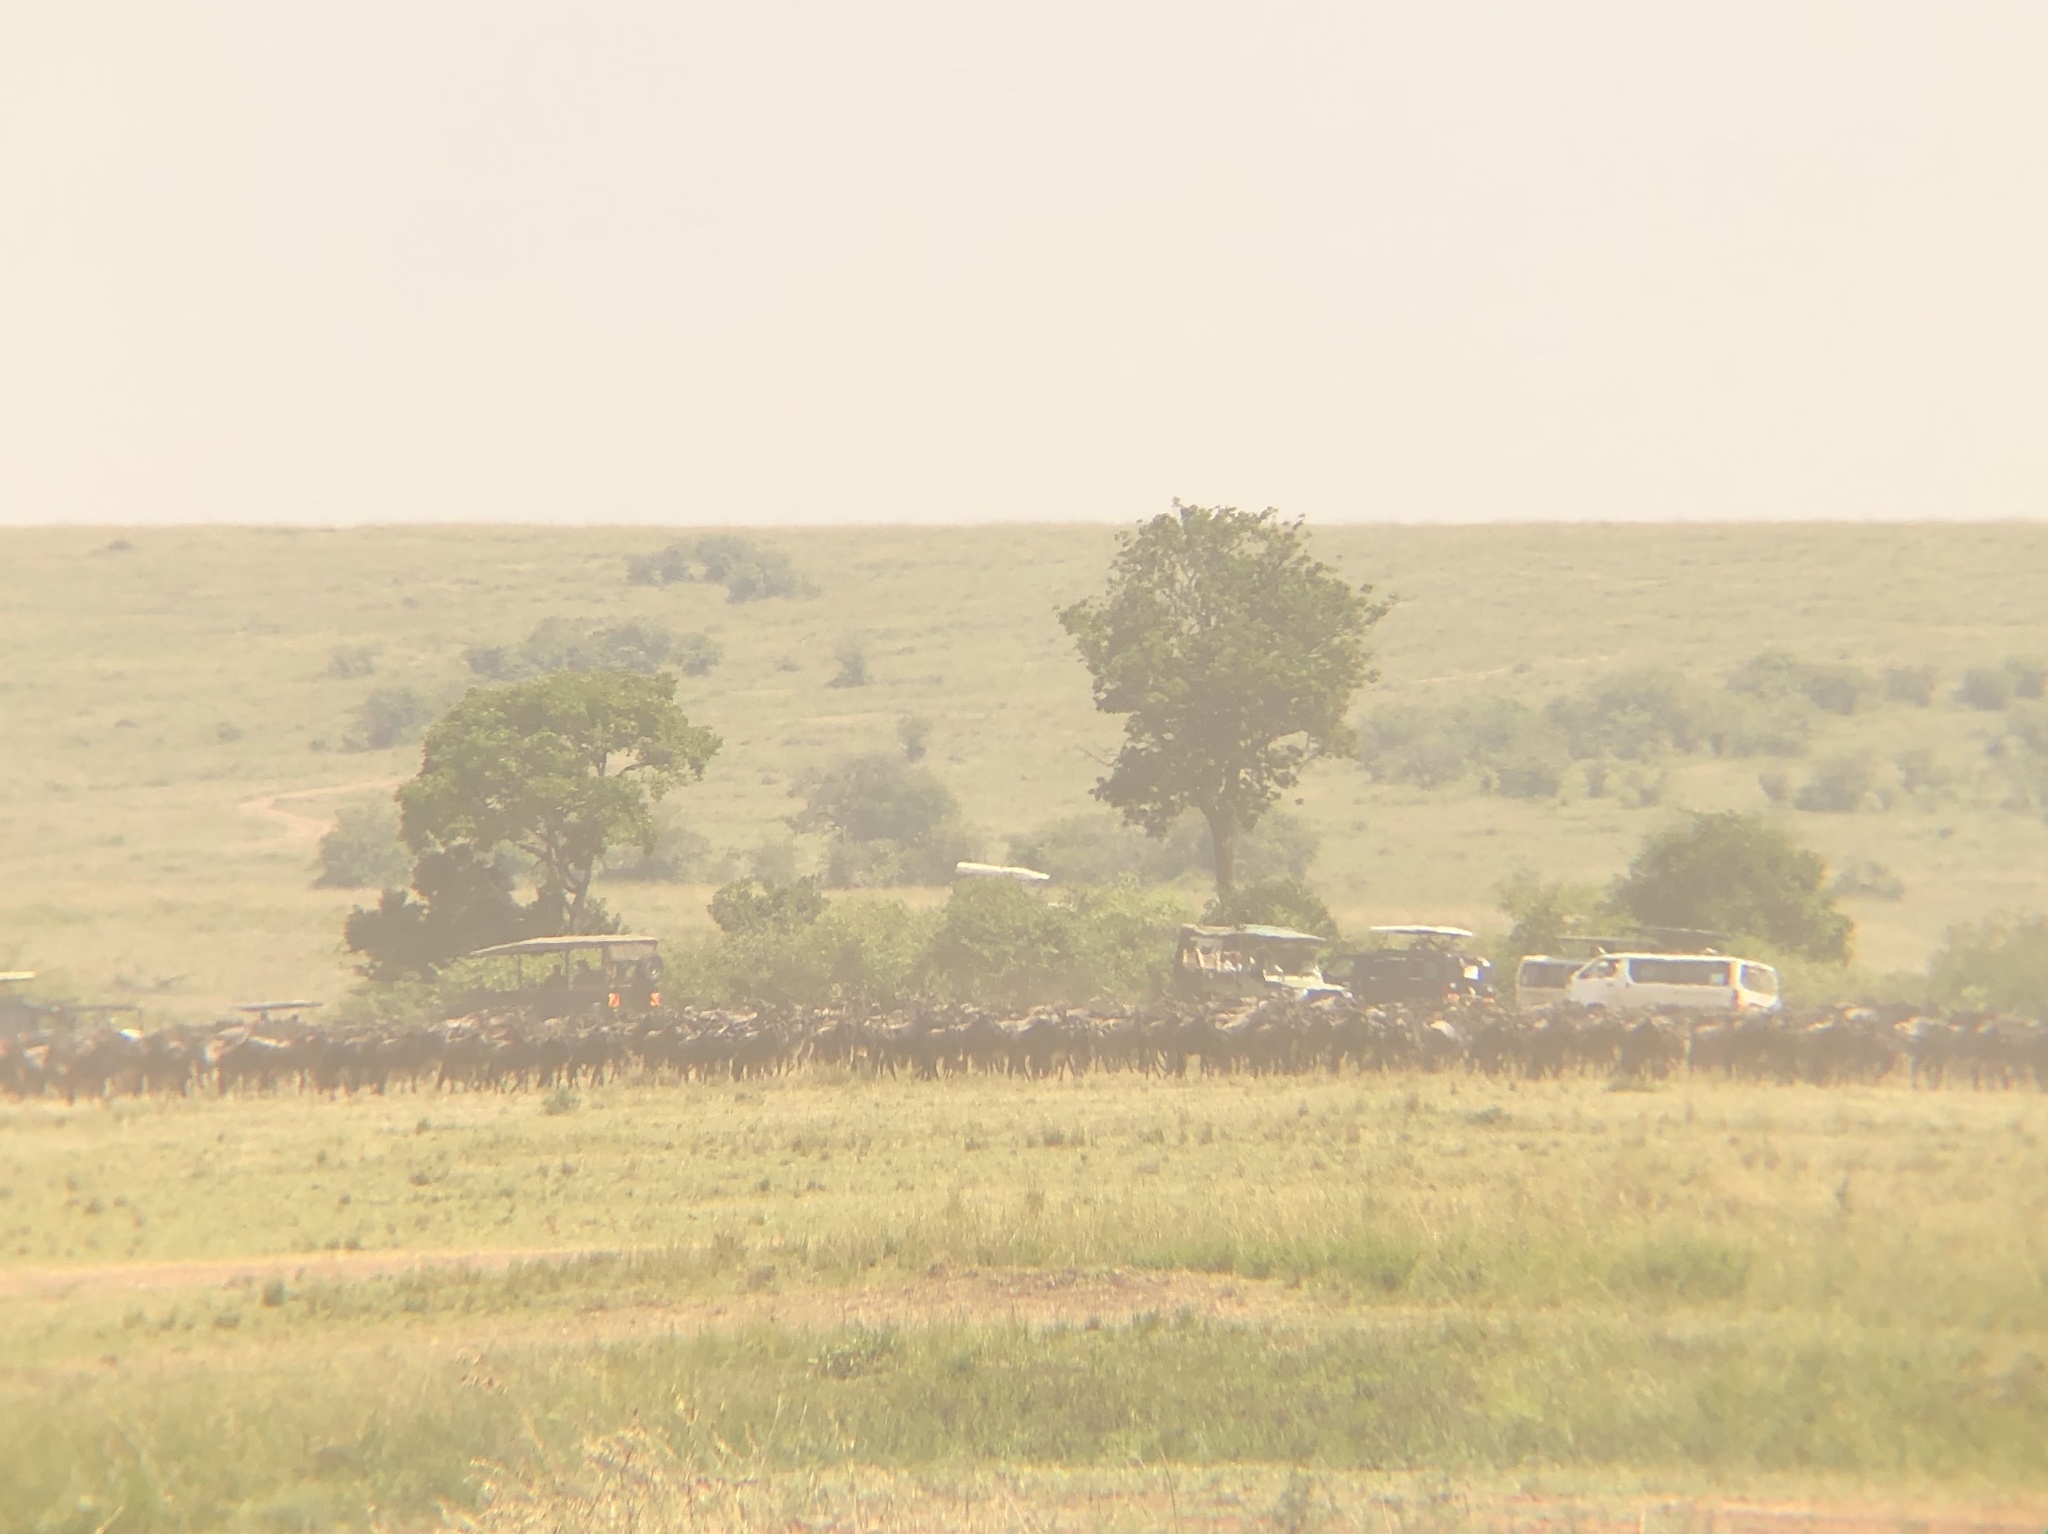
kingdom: Animalia
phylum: Chordata
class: Mammalia
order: Artiodactyla
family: Bovidae
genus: Connochaetes
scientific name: Connochaetes taurinus
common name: Blue wildebeest
